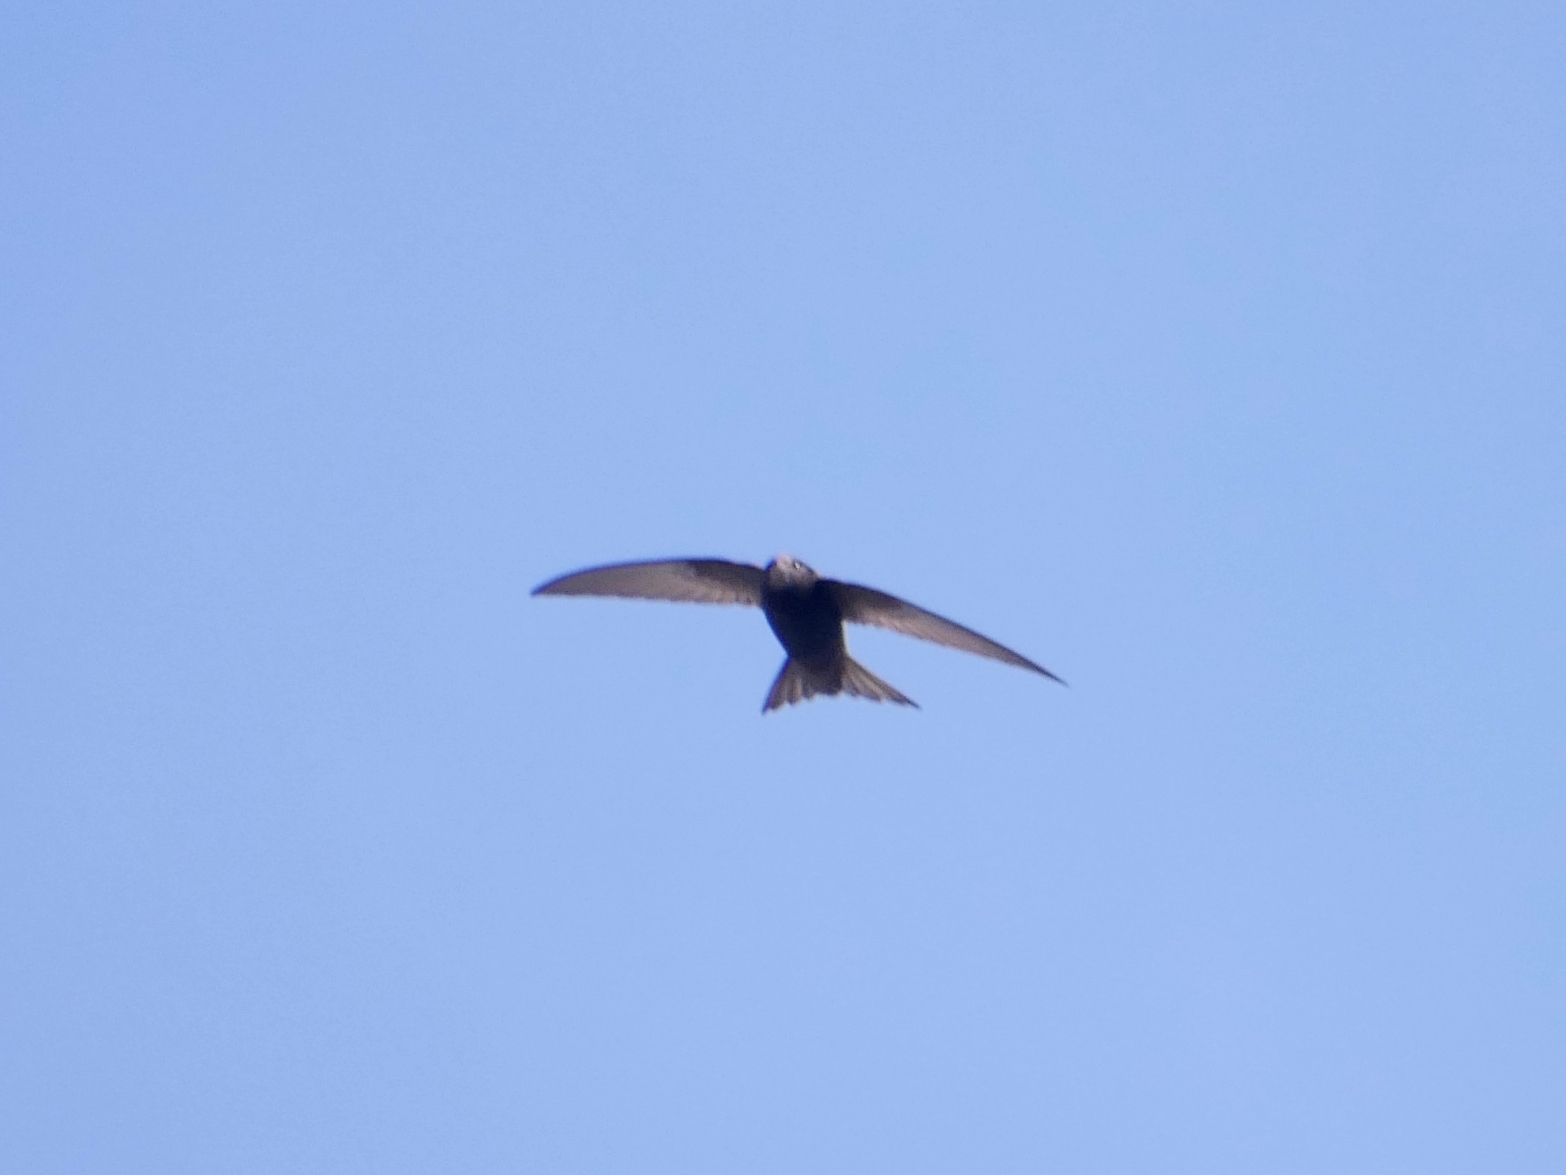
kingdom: Animalia
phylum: Chordata
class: Aves
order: Apodiformes
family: Apodidae
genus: Apus
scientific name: Apus apus
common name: Common swift
